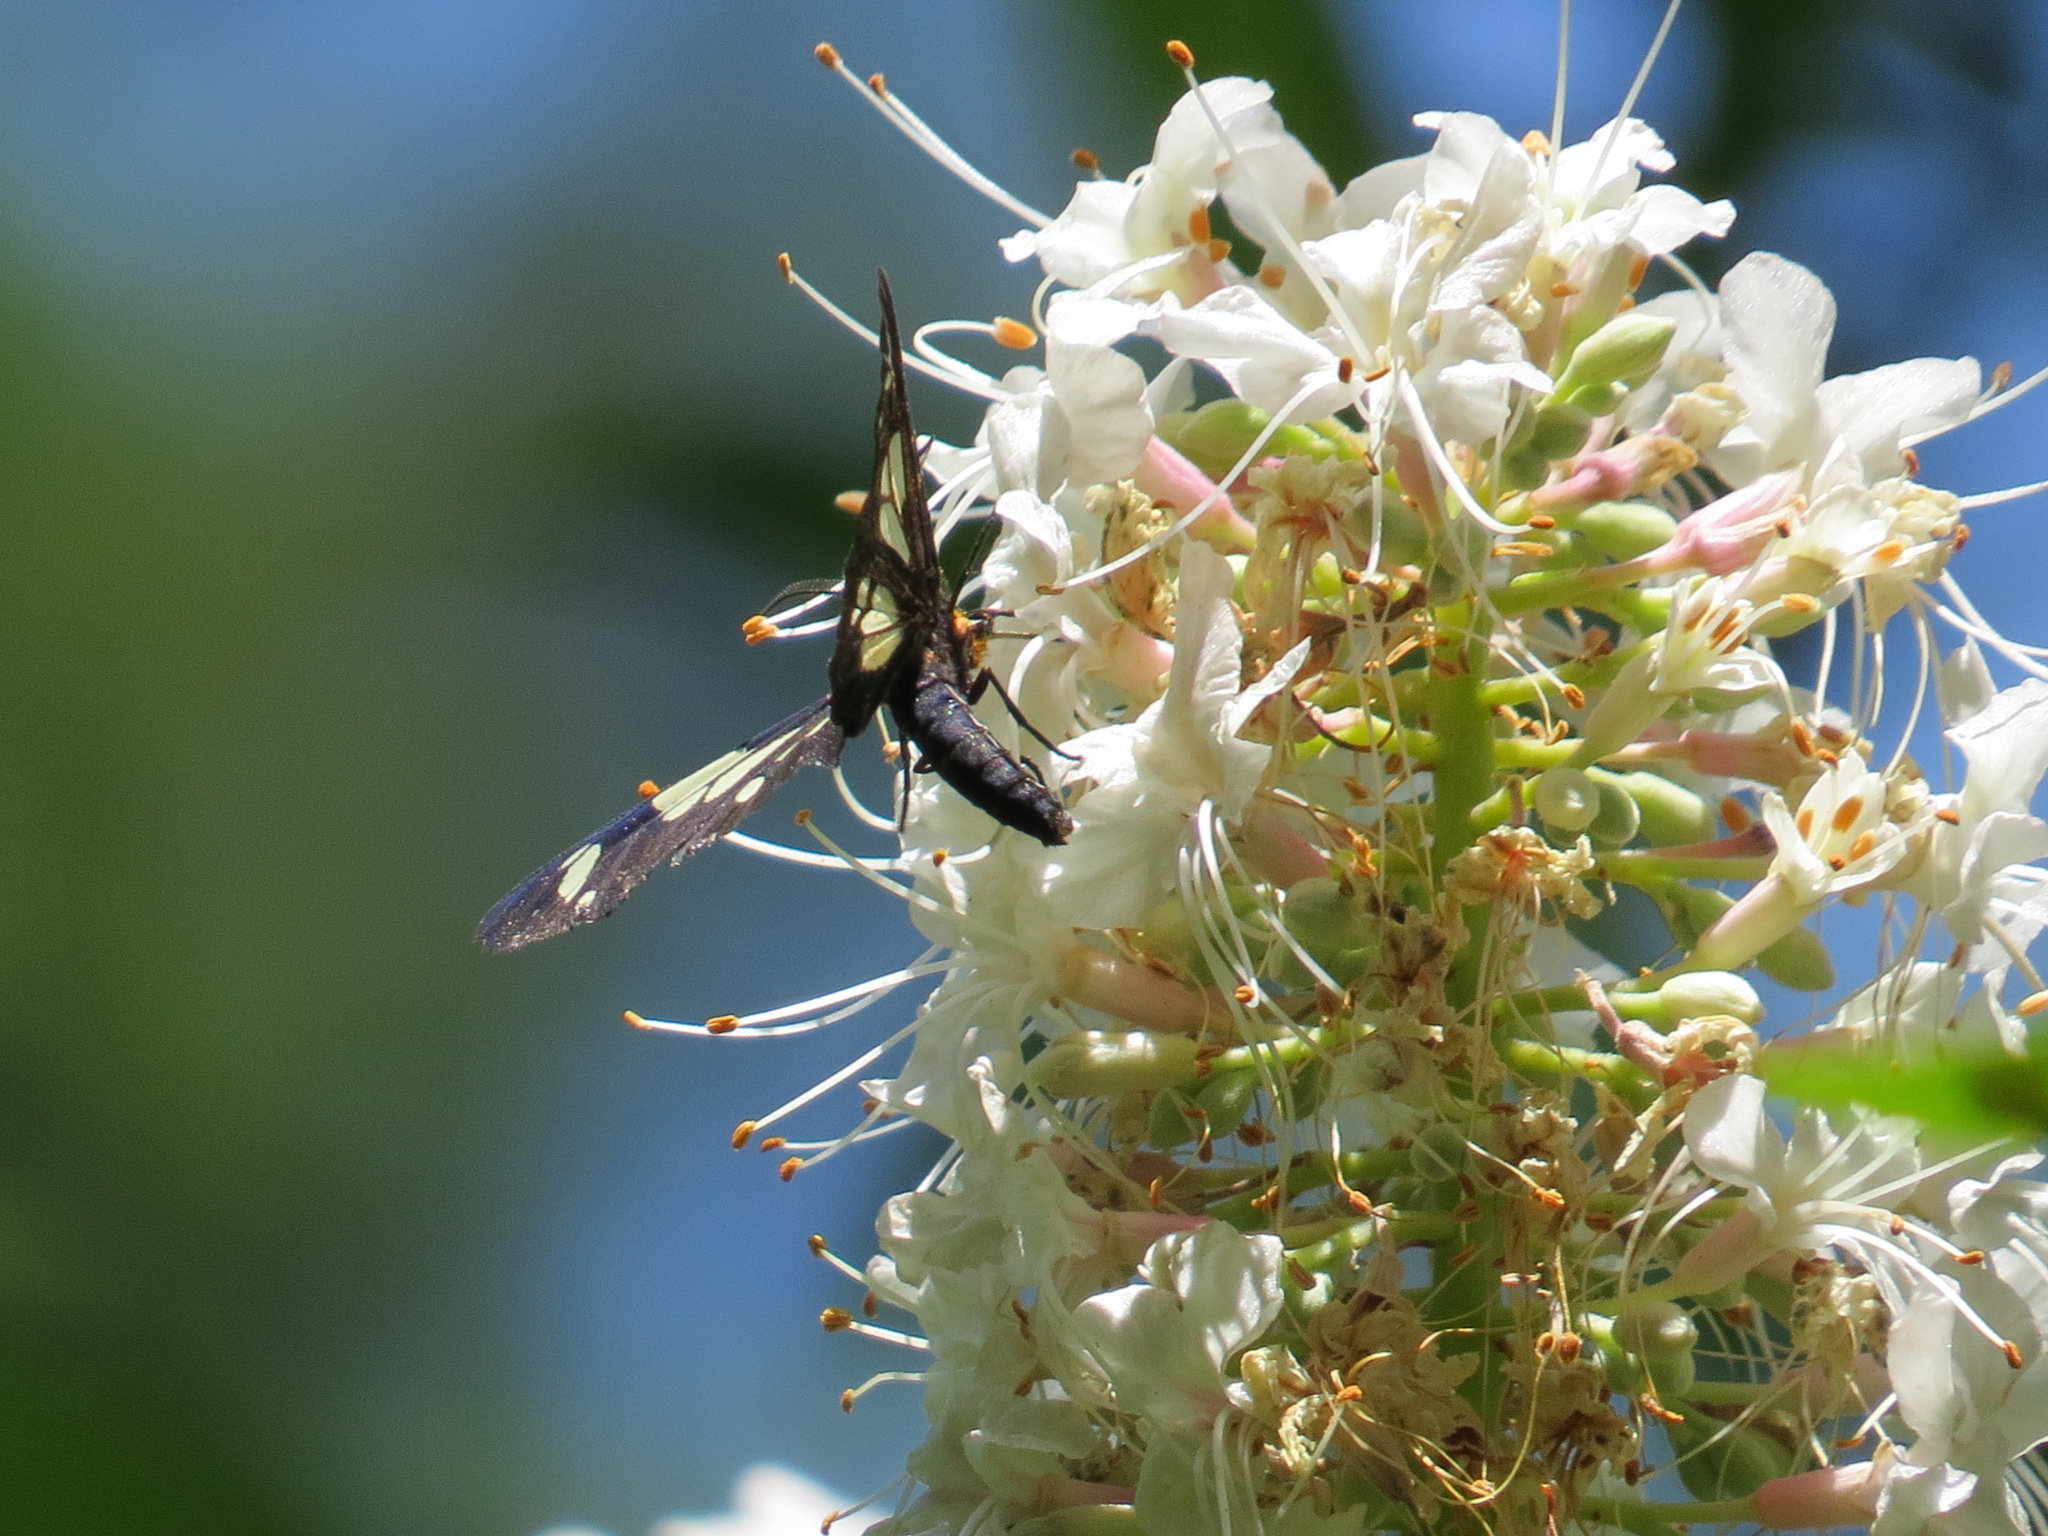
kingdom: Animalia
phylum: Arthropoda
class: Insecta
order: Lepidoptera
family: Erebidae
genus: Gnophaela
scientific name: Gnophaela latipennis
